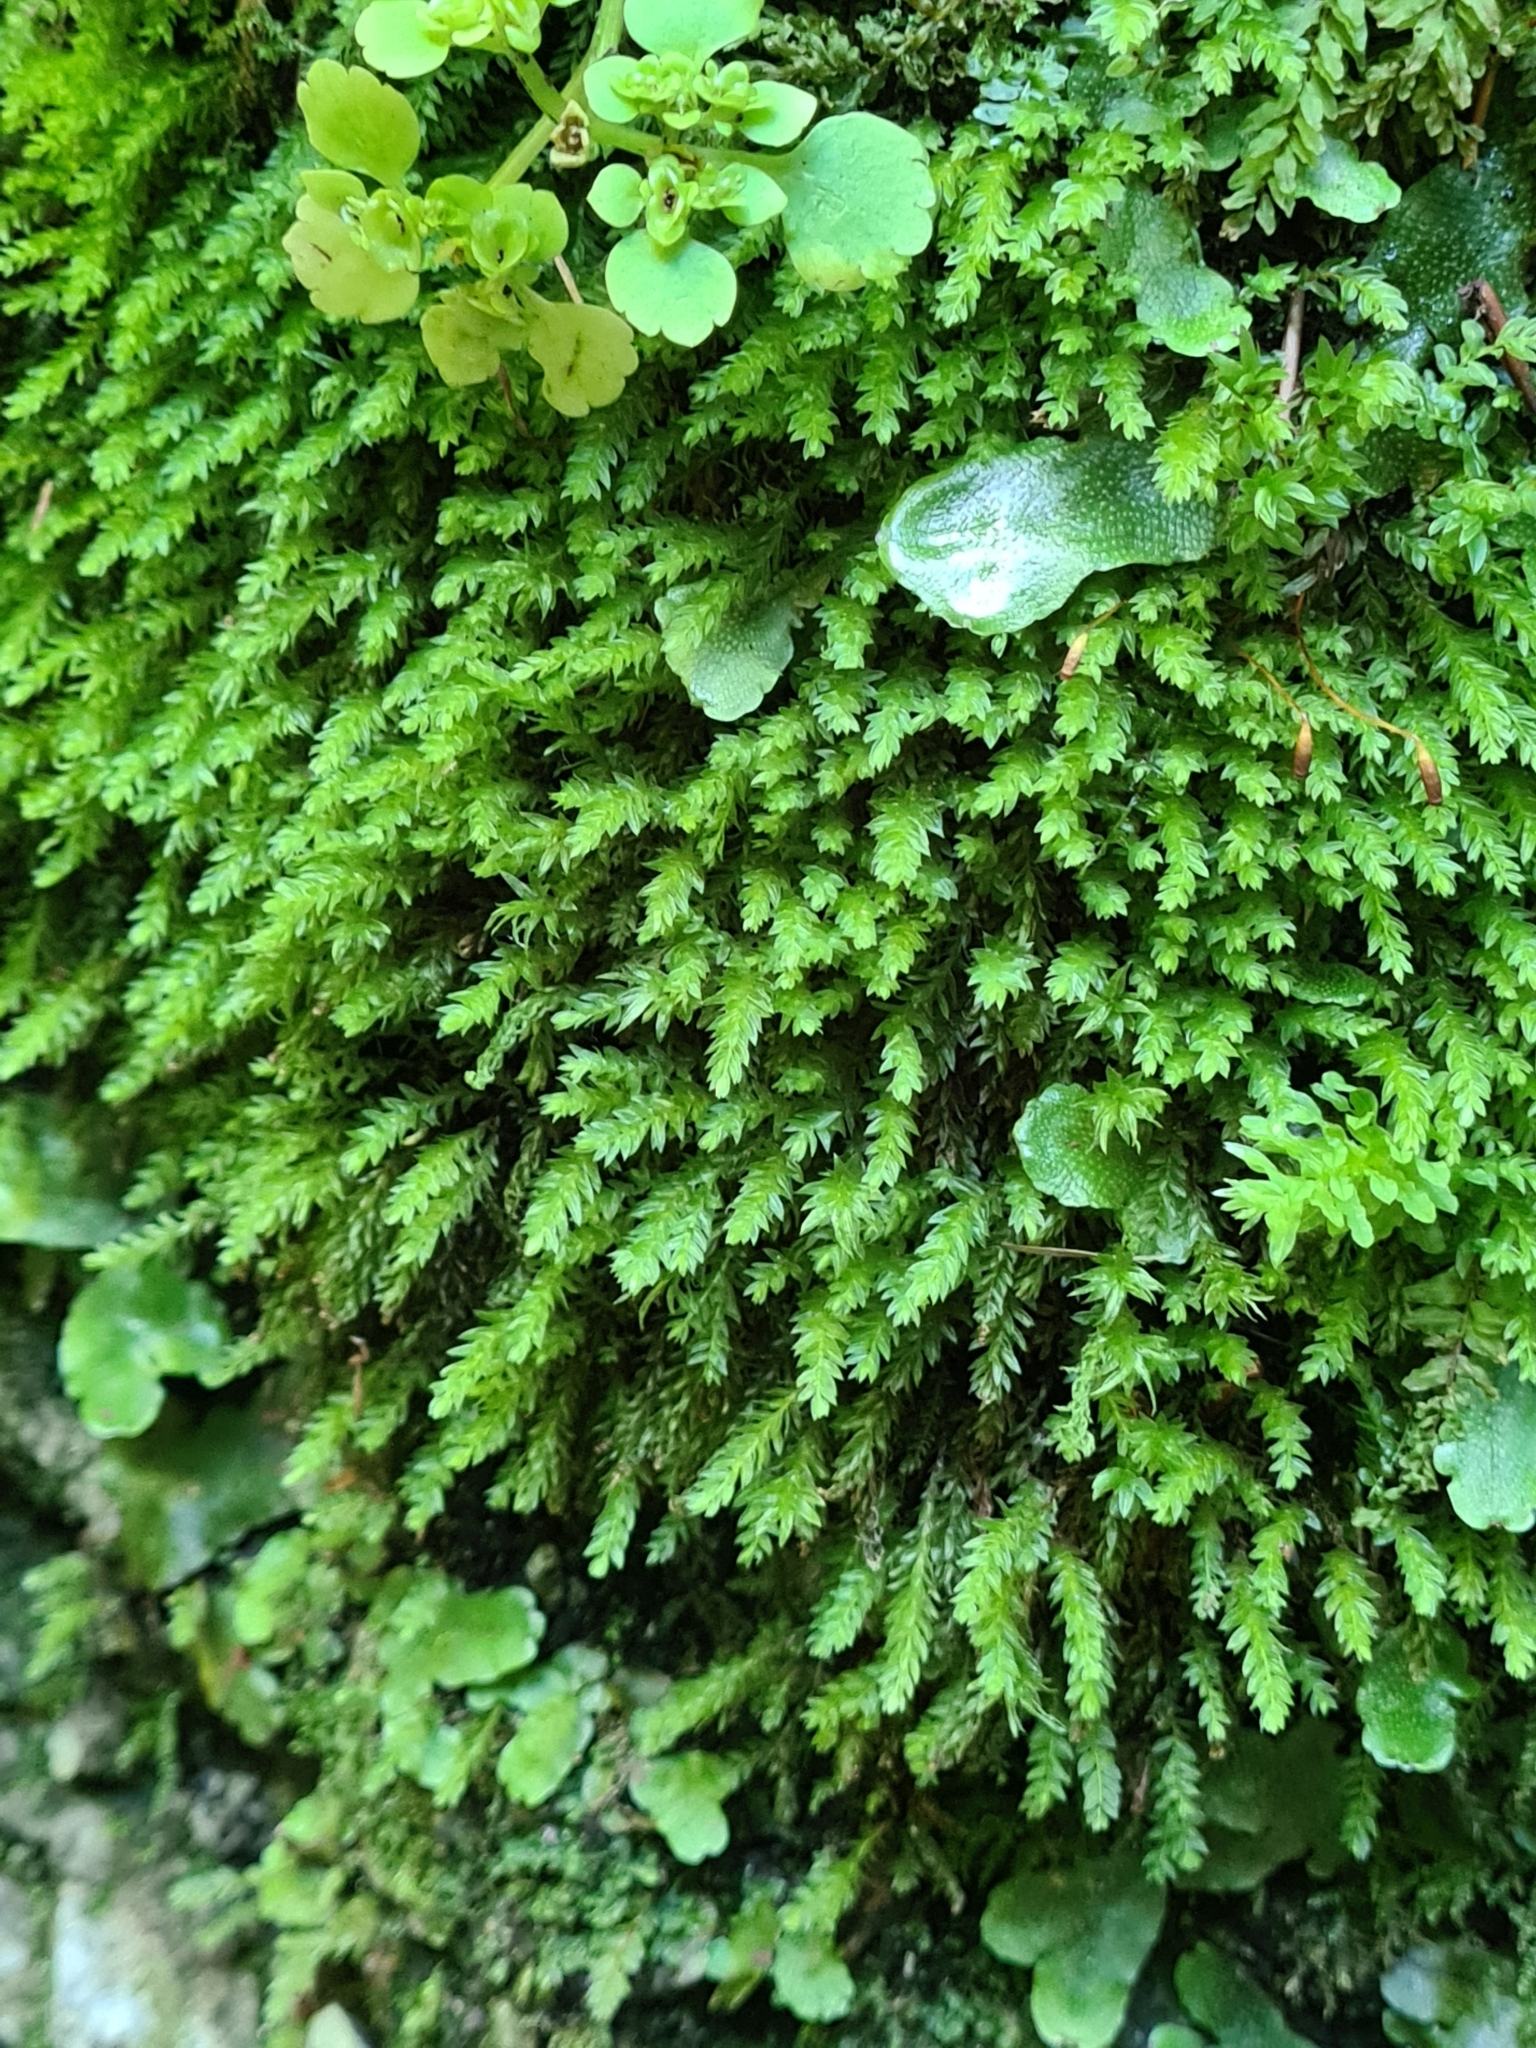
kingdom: Plantae
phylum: Bryophyta
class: Bryopsida
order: Bryales
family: Mniaceae
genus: Mnium
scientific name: Mnium hornum
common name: Swan's-neck leafy moss
